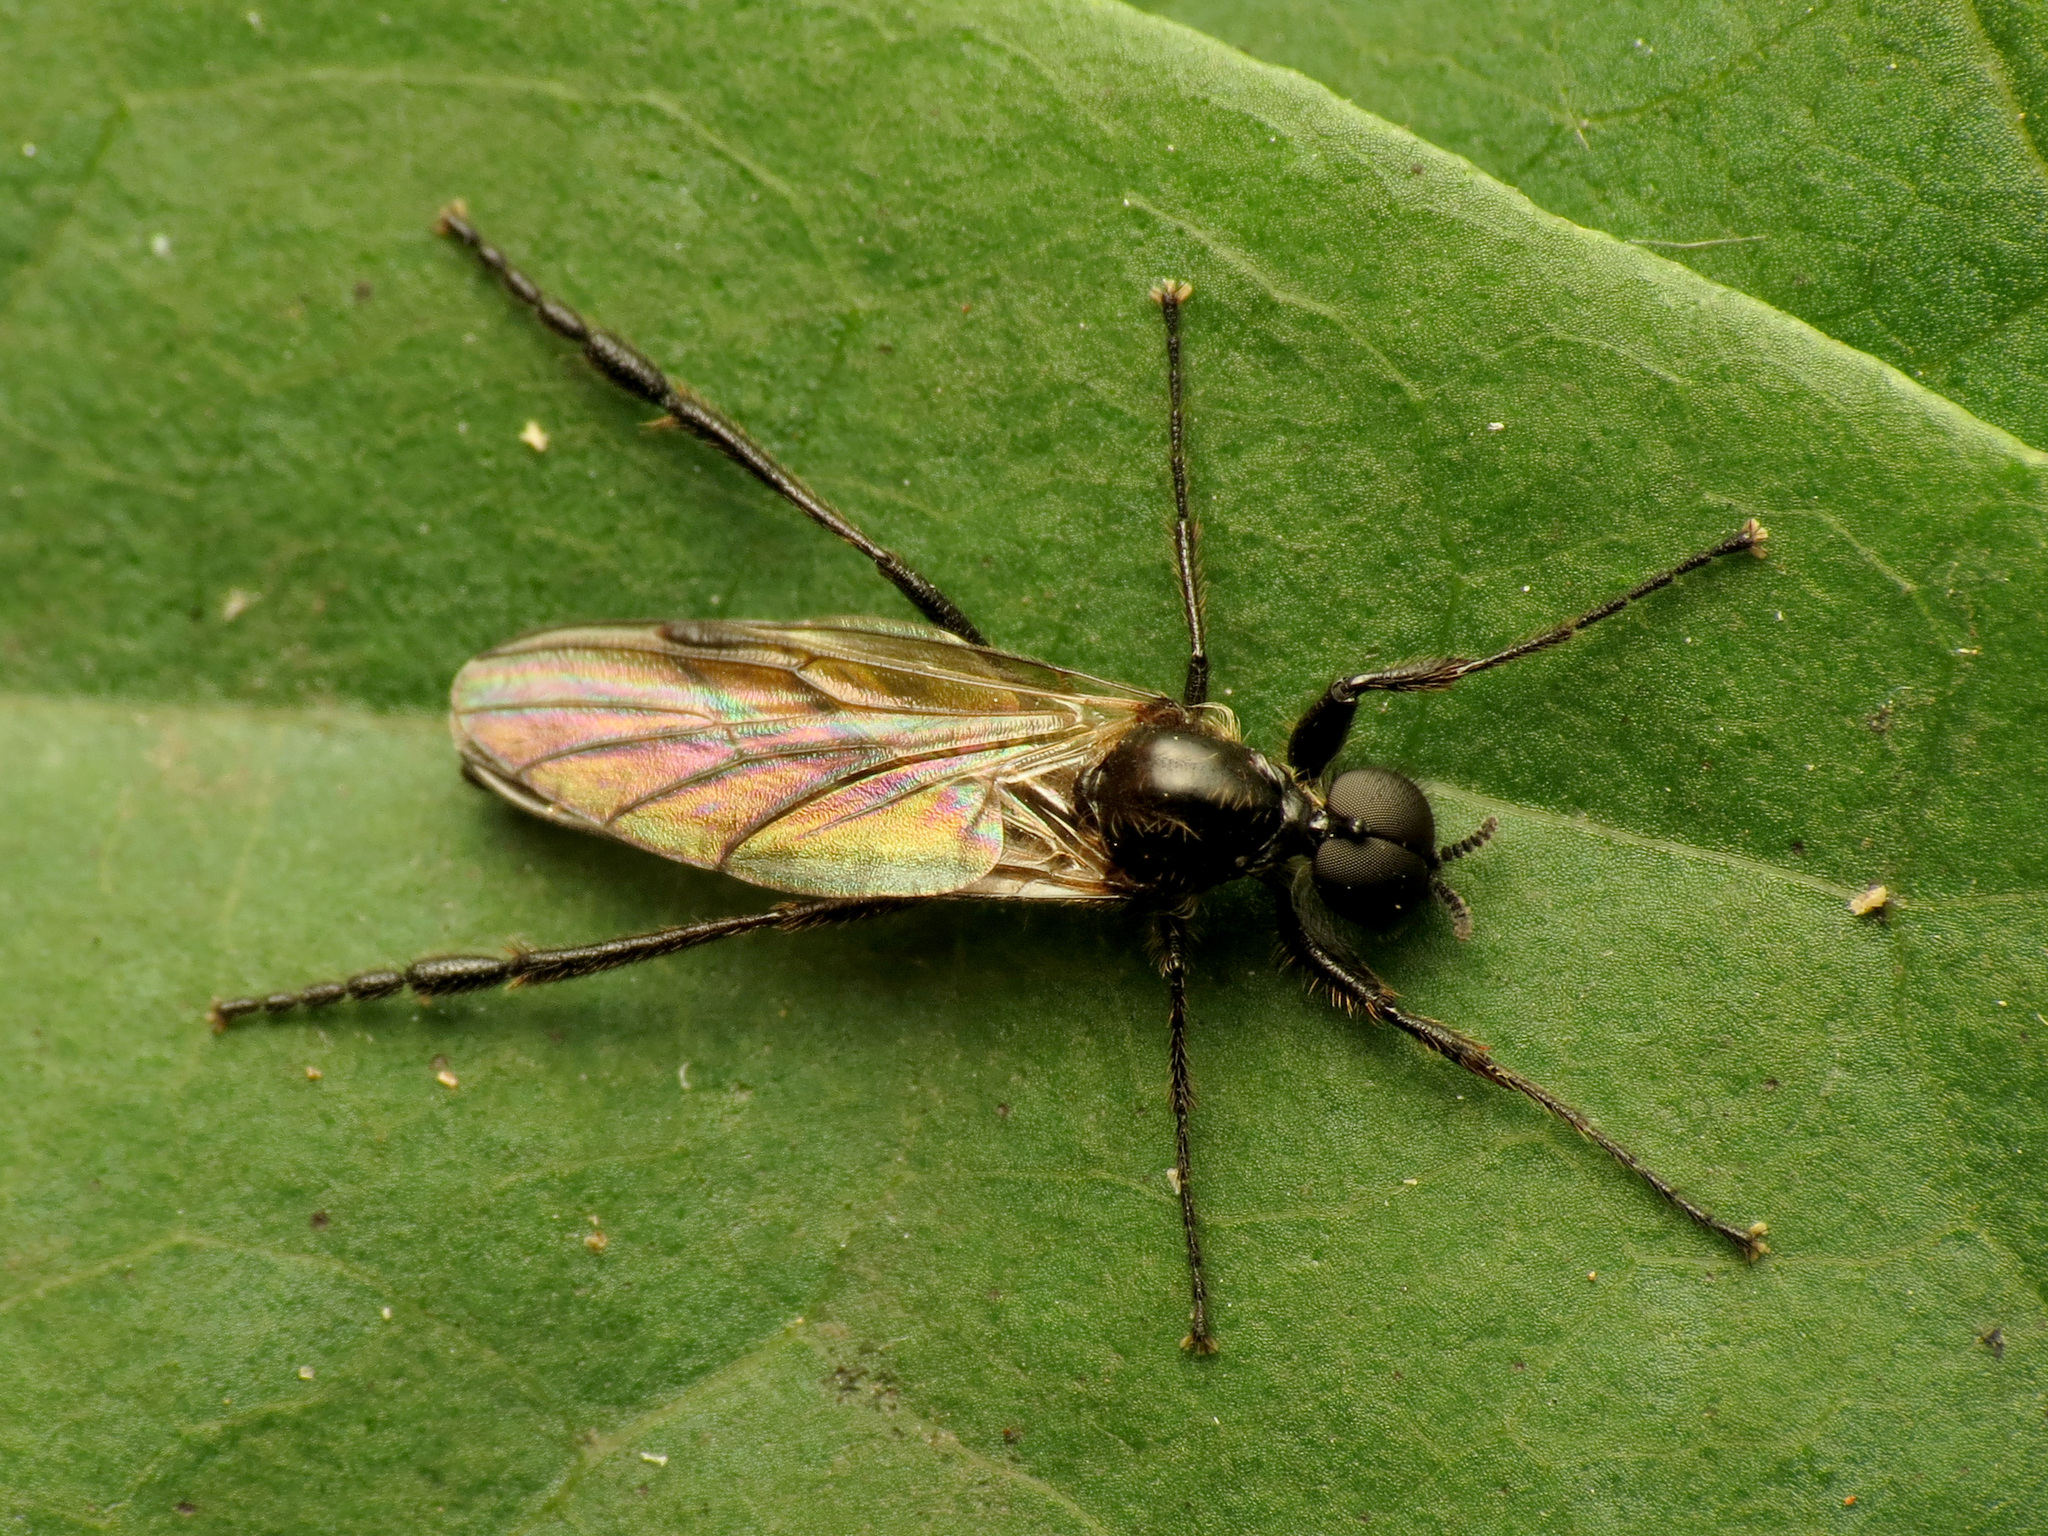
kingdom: Animalia
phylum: Arthropoda
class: Insecta
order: Diptera
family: Bibionidae
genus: Bibio
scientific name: Bibio longipes
